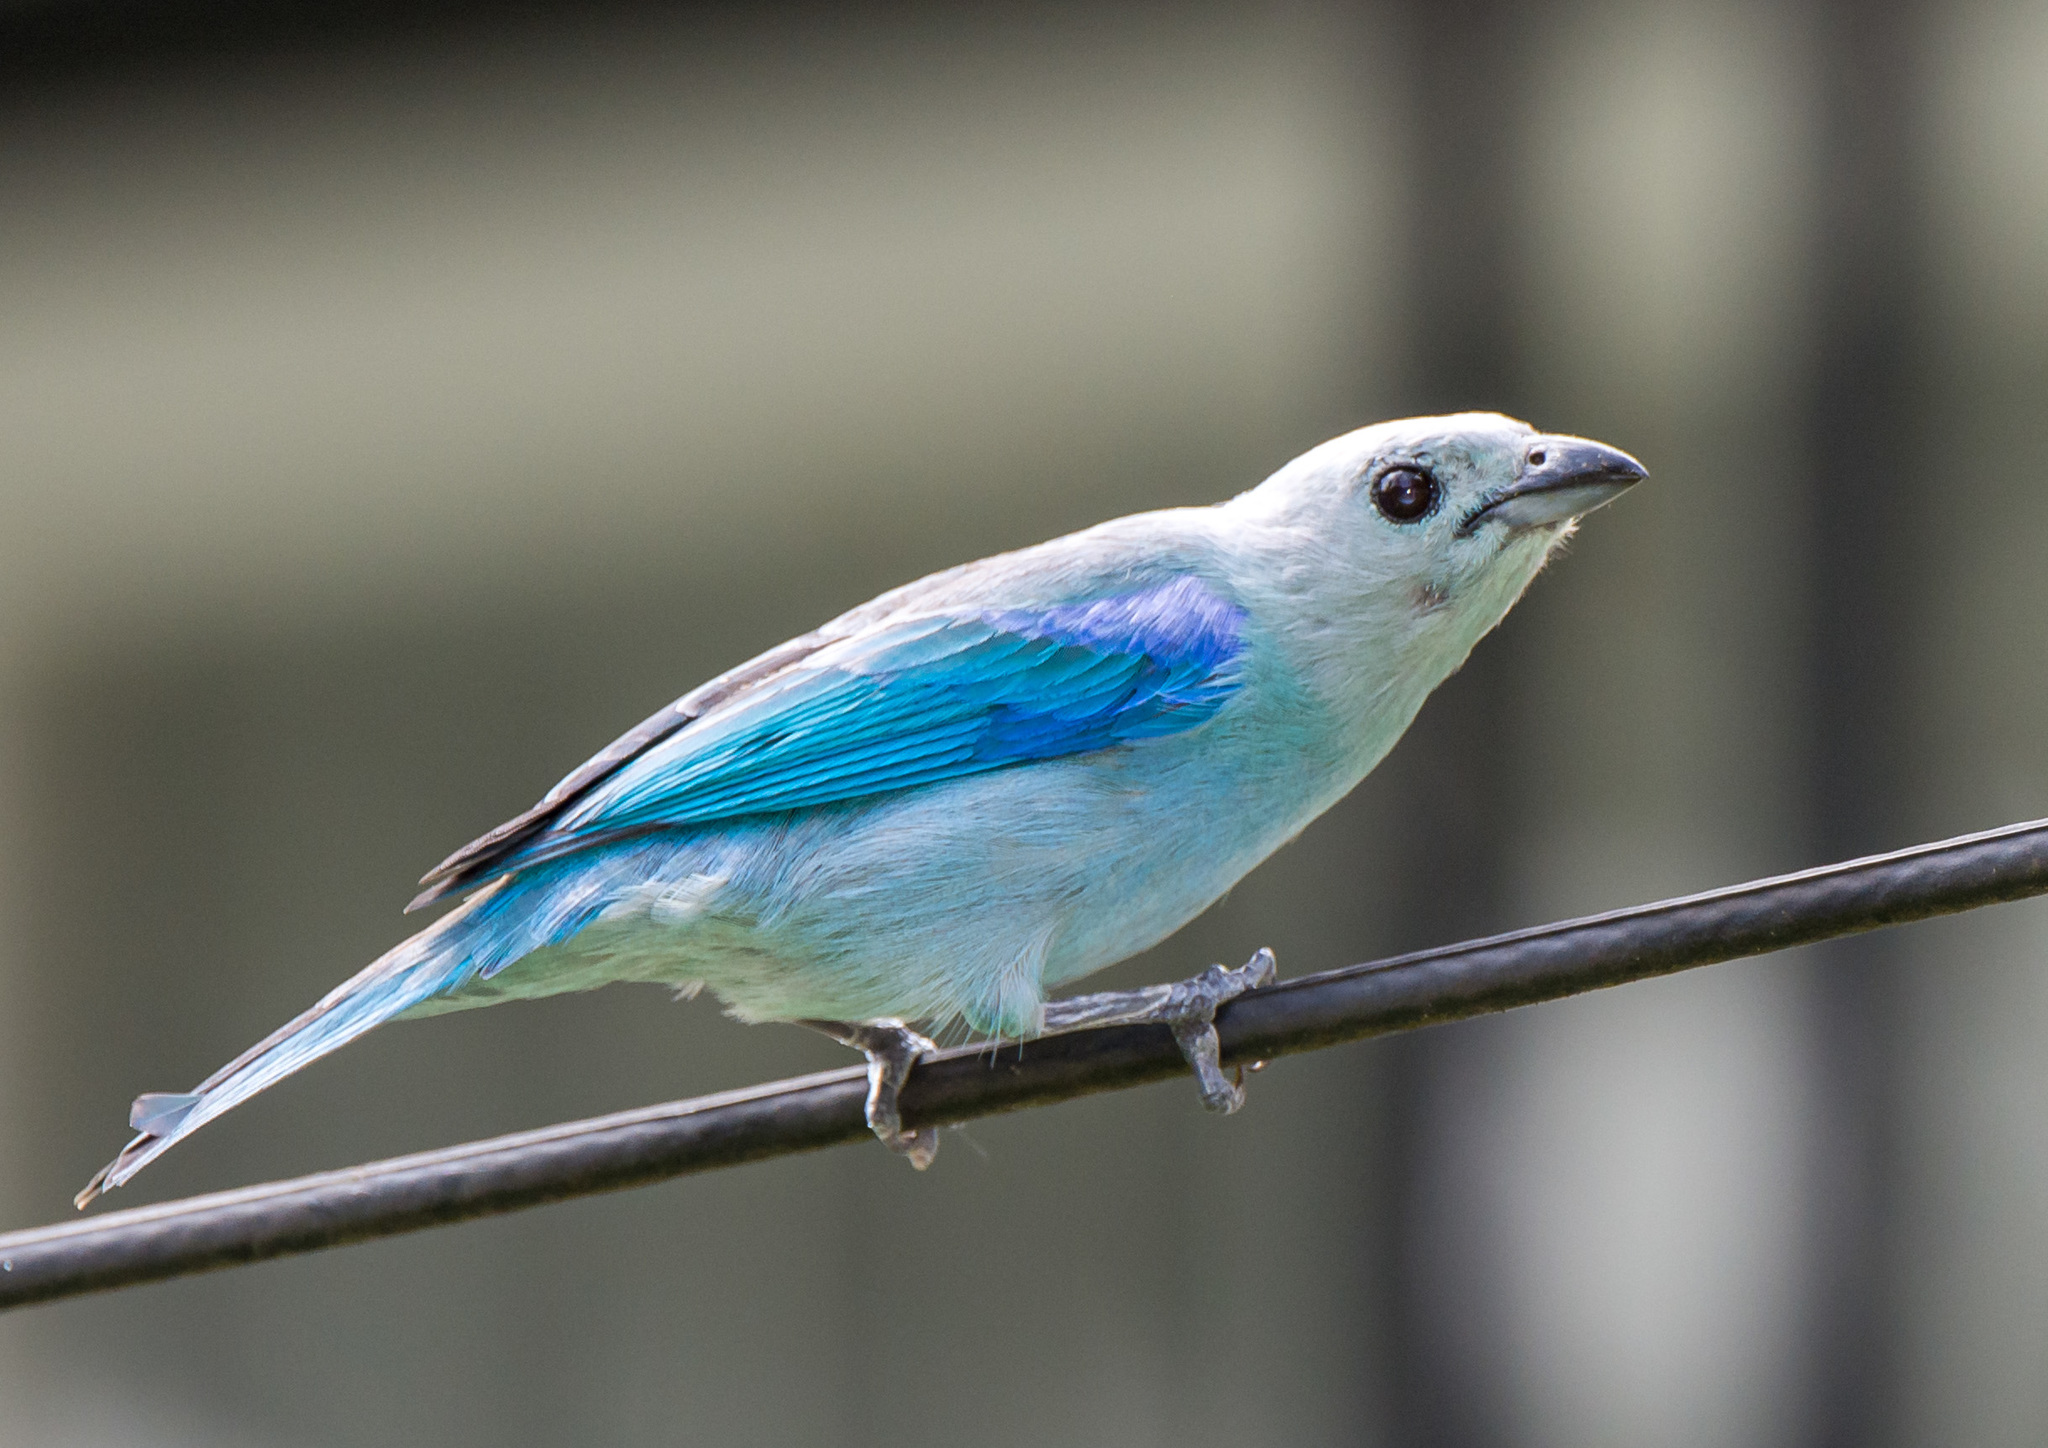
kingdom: Animalia
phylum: Chordata
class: Aves
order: Passeriformes
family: Thraupidae
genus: Thraupis
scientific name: Thraupis episcopus
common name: Blue-grey tanager
